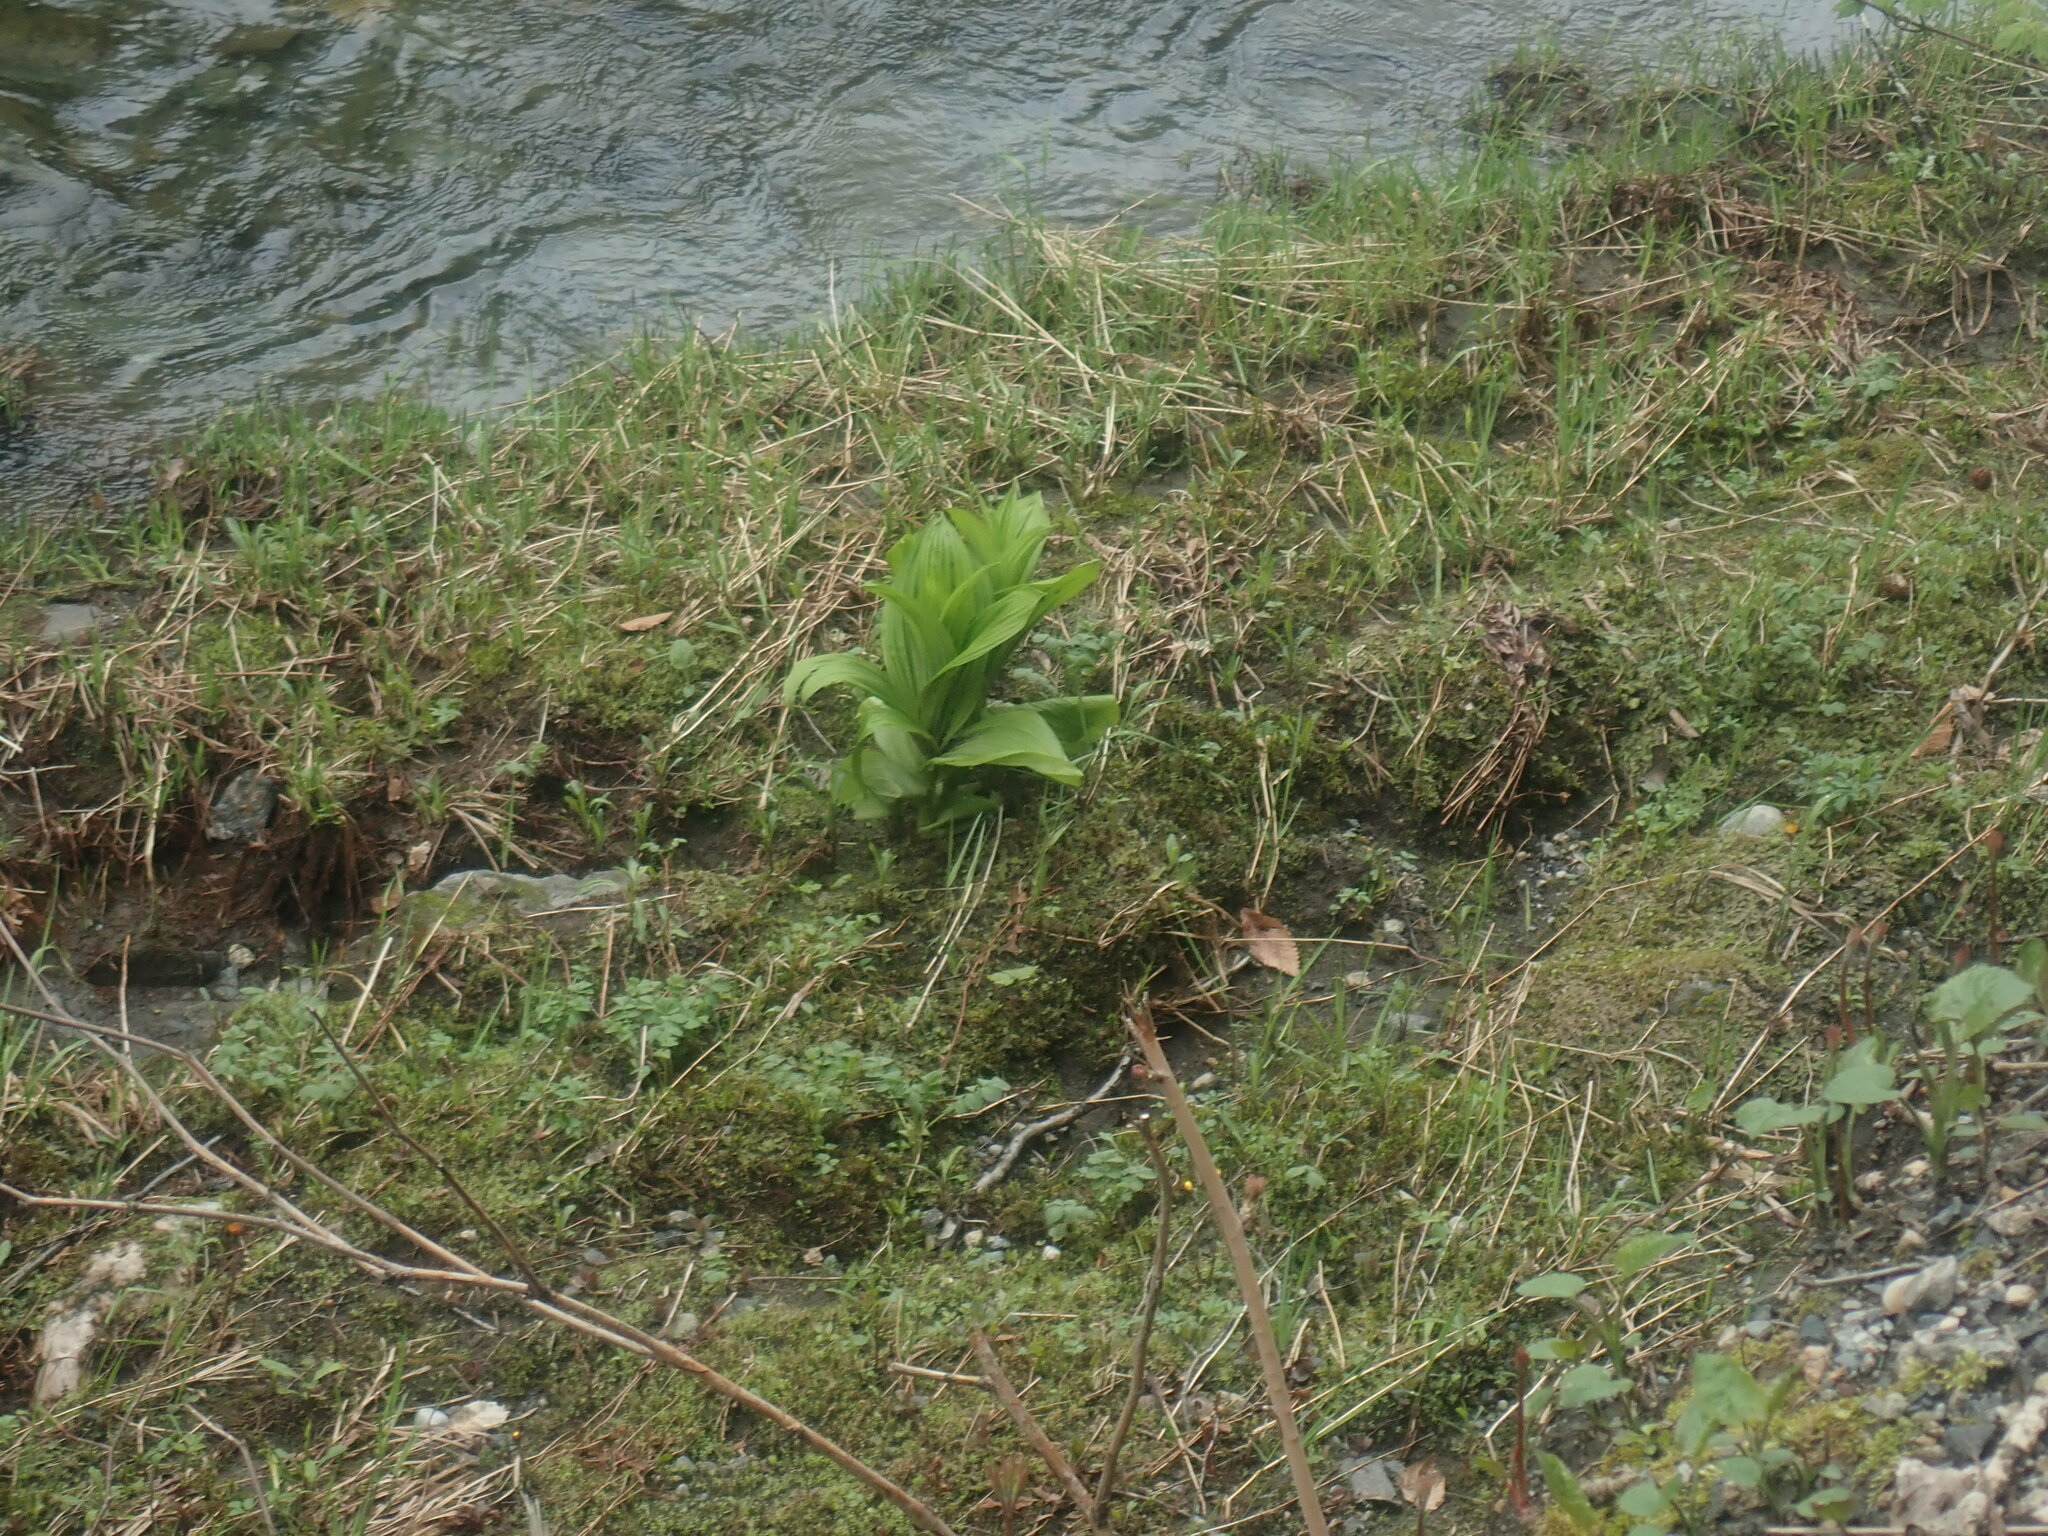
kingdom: Plantae
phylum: Tracheophyta
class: Liliopsida
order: Liliales
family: Melanthiaceae
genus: Veratrum
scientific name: Veratrum viride
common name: American false hellebore
